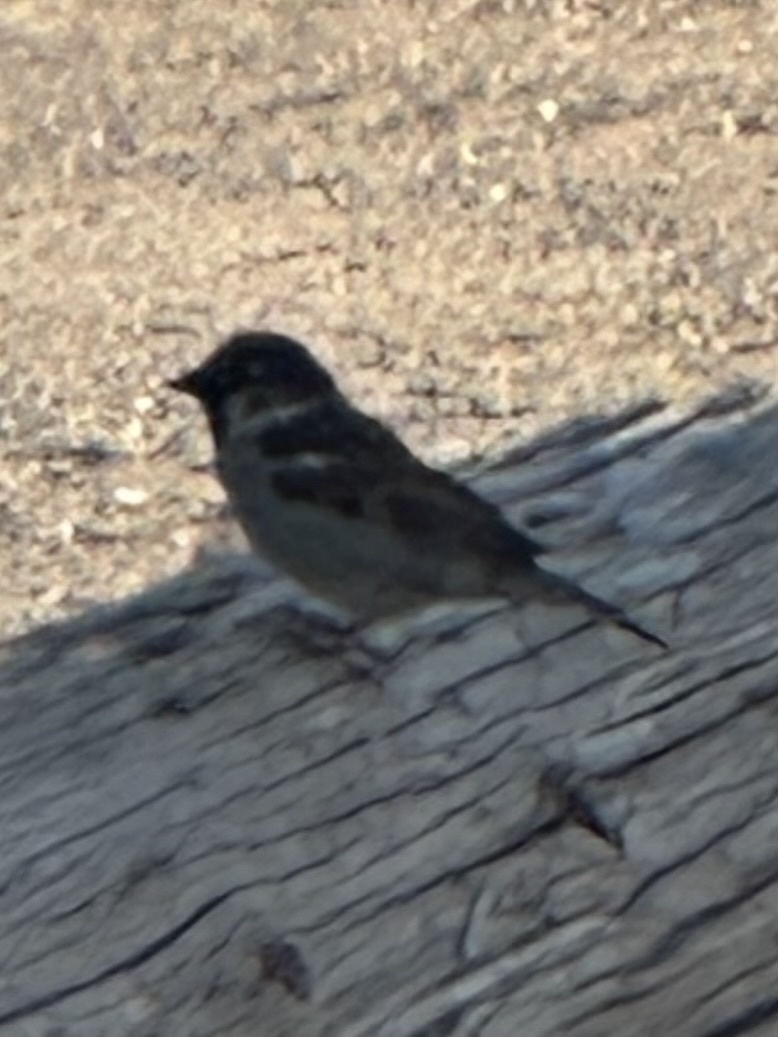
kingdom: Animalia
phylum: Chordata
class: Aves
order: Passeriformes
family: Passeridae
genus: Passer
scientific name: Passer domesticus
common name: House sparrow
